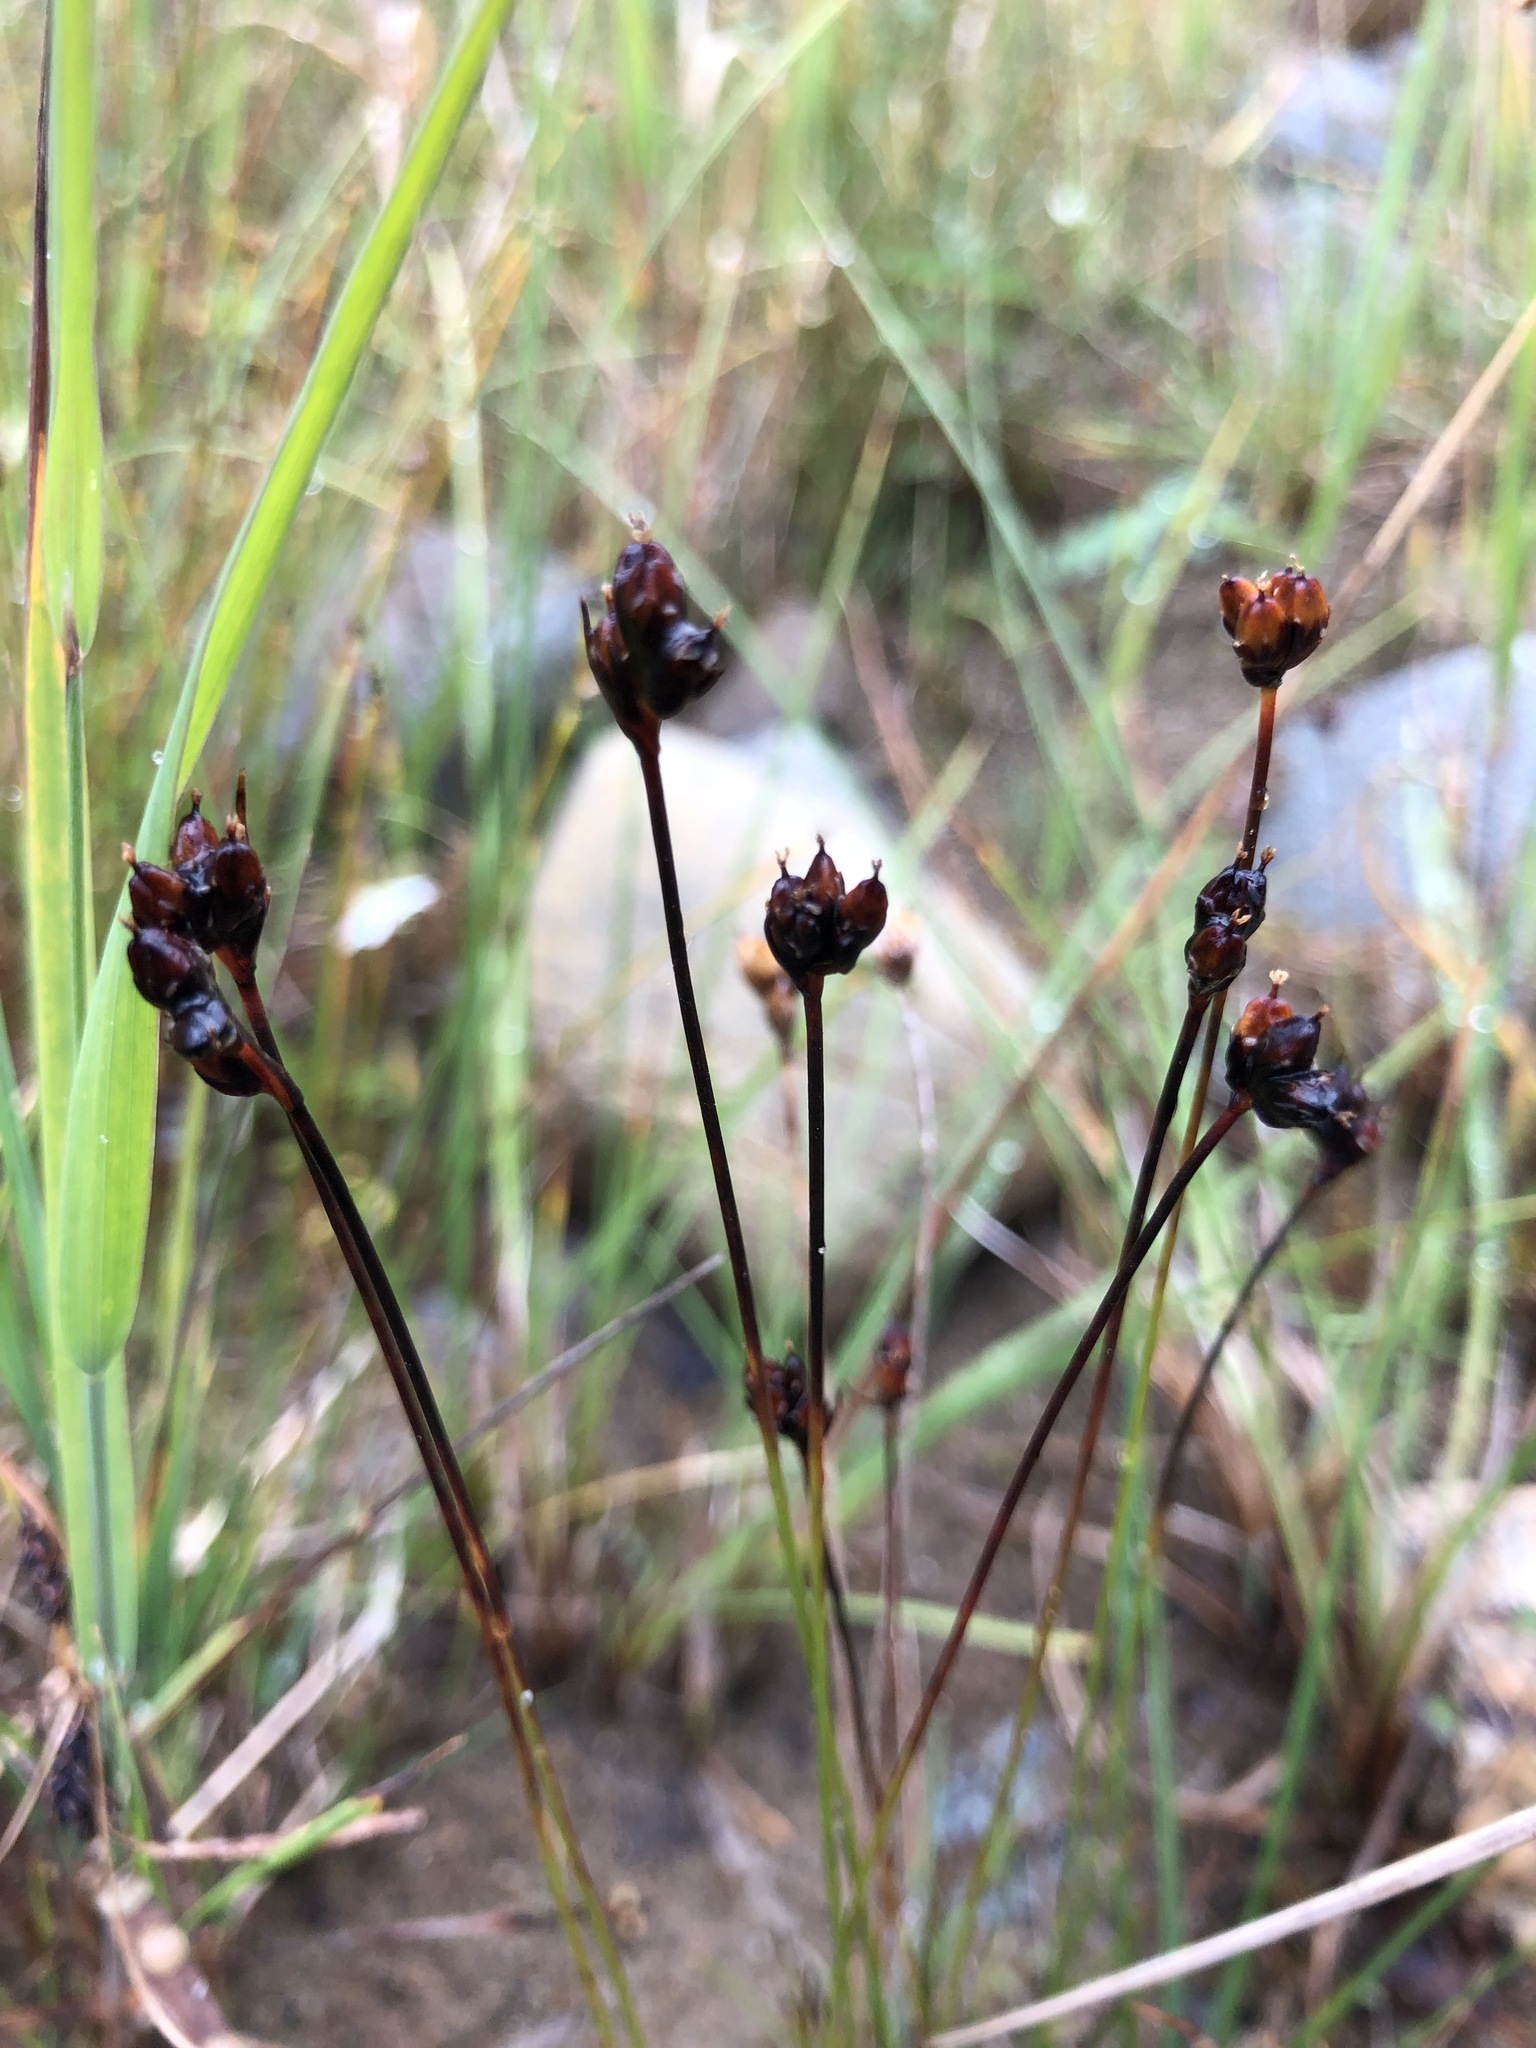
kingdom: Plantae
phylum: Tracheophyta
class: Liliopsida
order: Poales
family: Juncaceae
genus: Juncus
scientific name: Juncus triglumis
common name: Three-flowered rush
